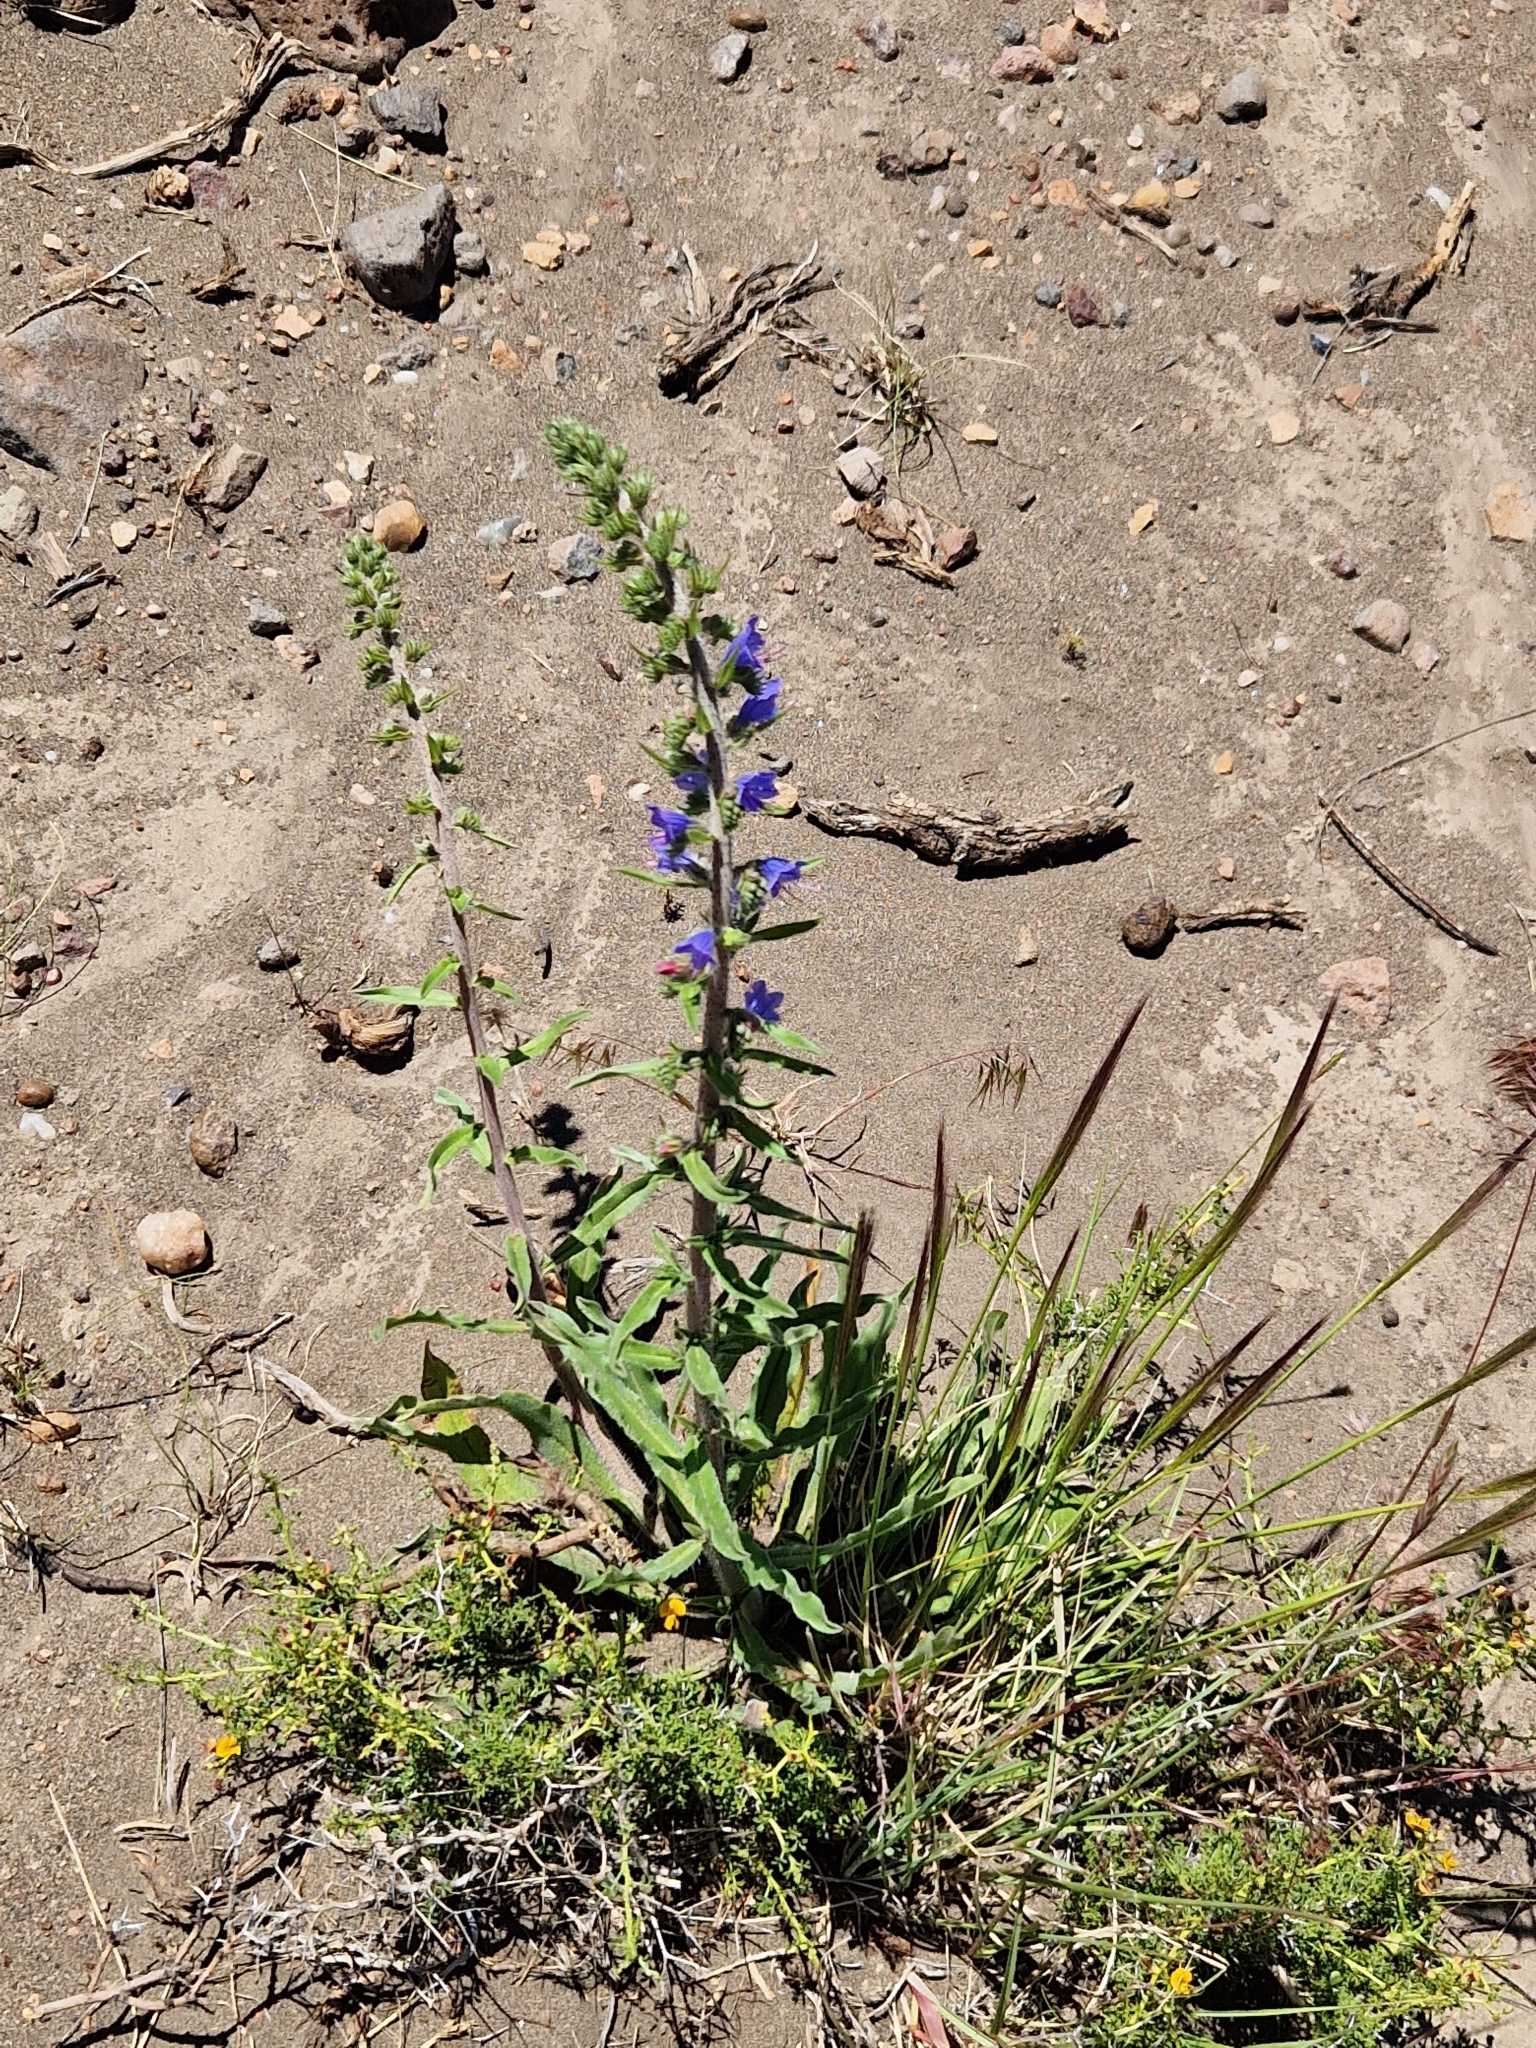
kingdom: Plantae
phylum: Tracheophyta
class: Magnoliopsida
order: Boraginales
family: Boraginaceae
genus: Echium
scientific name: Echium vulgare
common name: Common viper's bugloss
